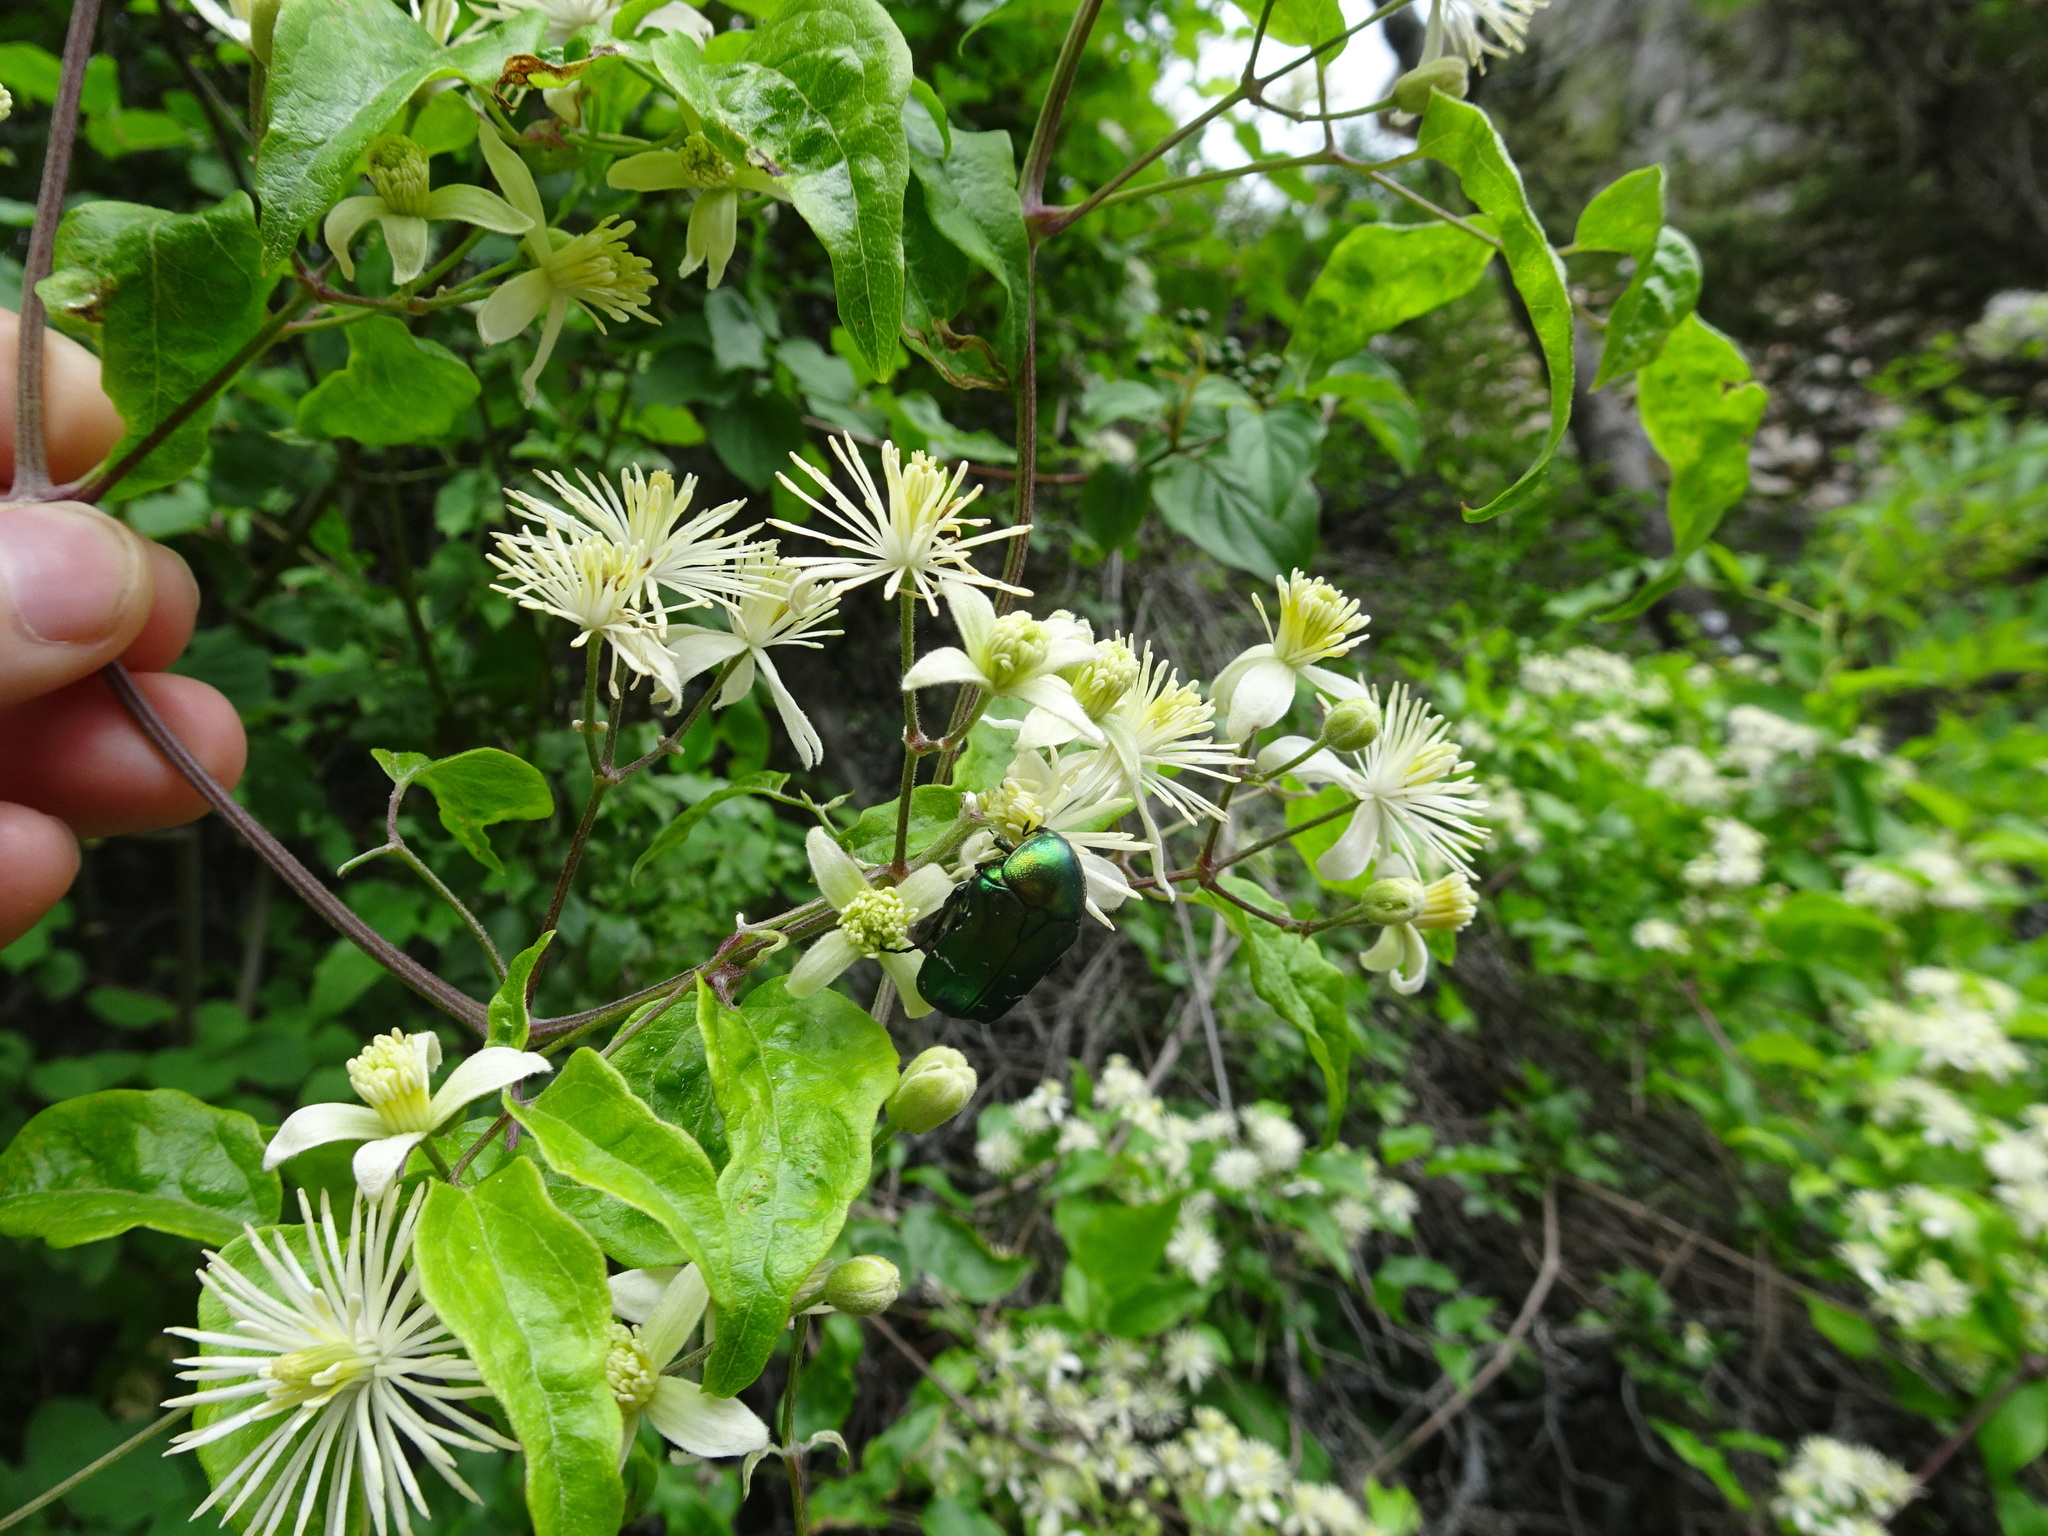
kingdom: Plantae
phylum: Tracheophyta
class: Magnoliopsida
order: Ranunculales
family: Ranunculaceae
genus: Clematis
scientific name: Clematis vitalba
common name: Evergreen clematis
